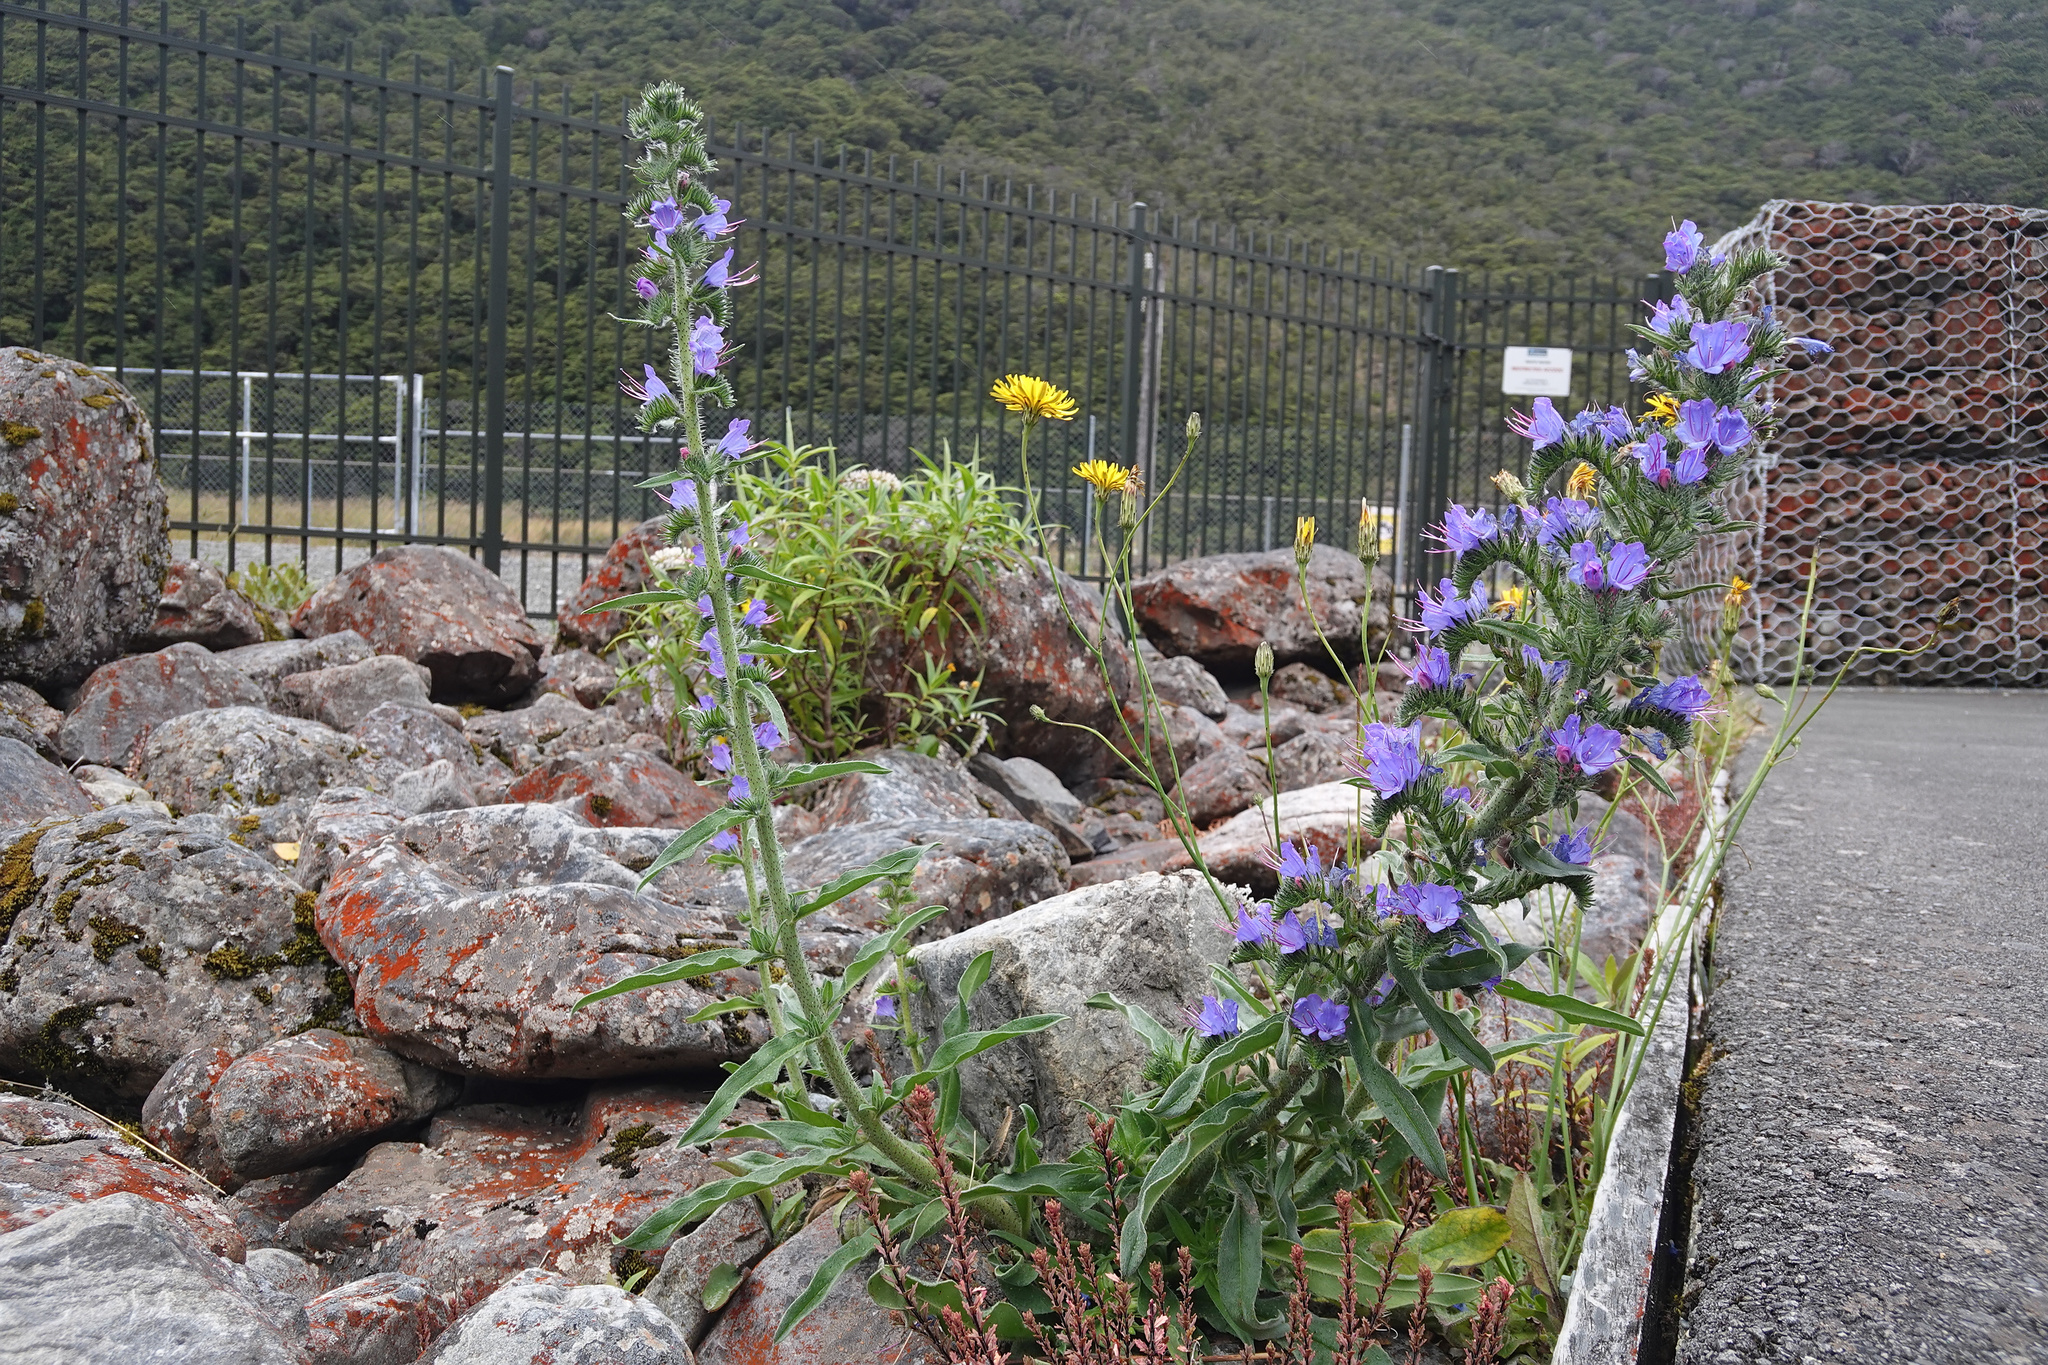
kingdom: Plantae
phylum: Tracheophyta
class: Magnoliopsida
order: Boraginales
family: Boraginaceae
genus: Echium
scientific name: Echium vulgare
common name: Common viper's bugloss
